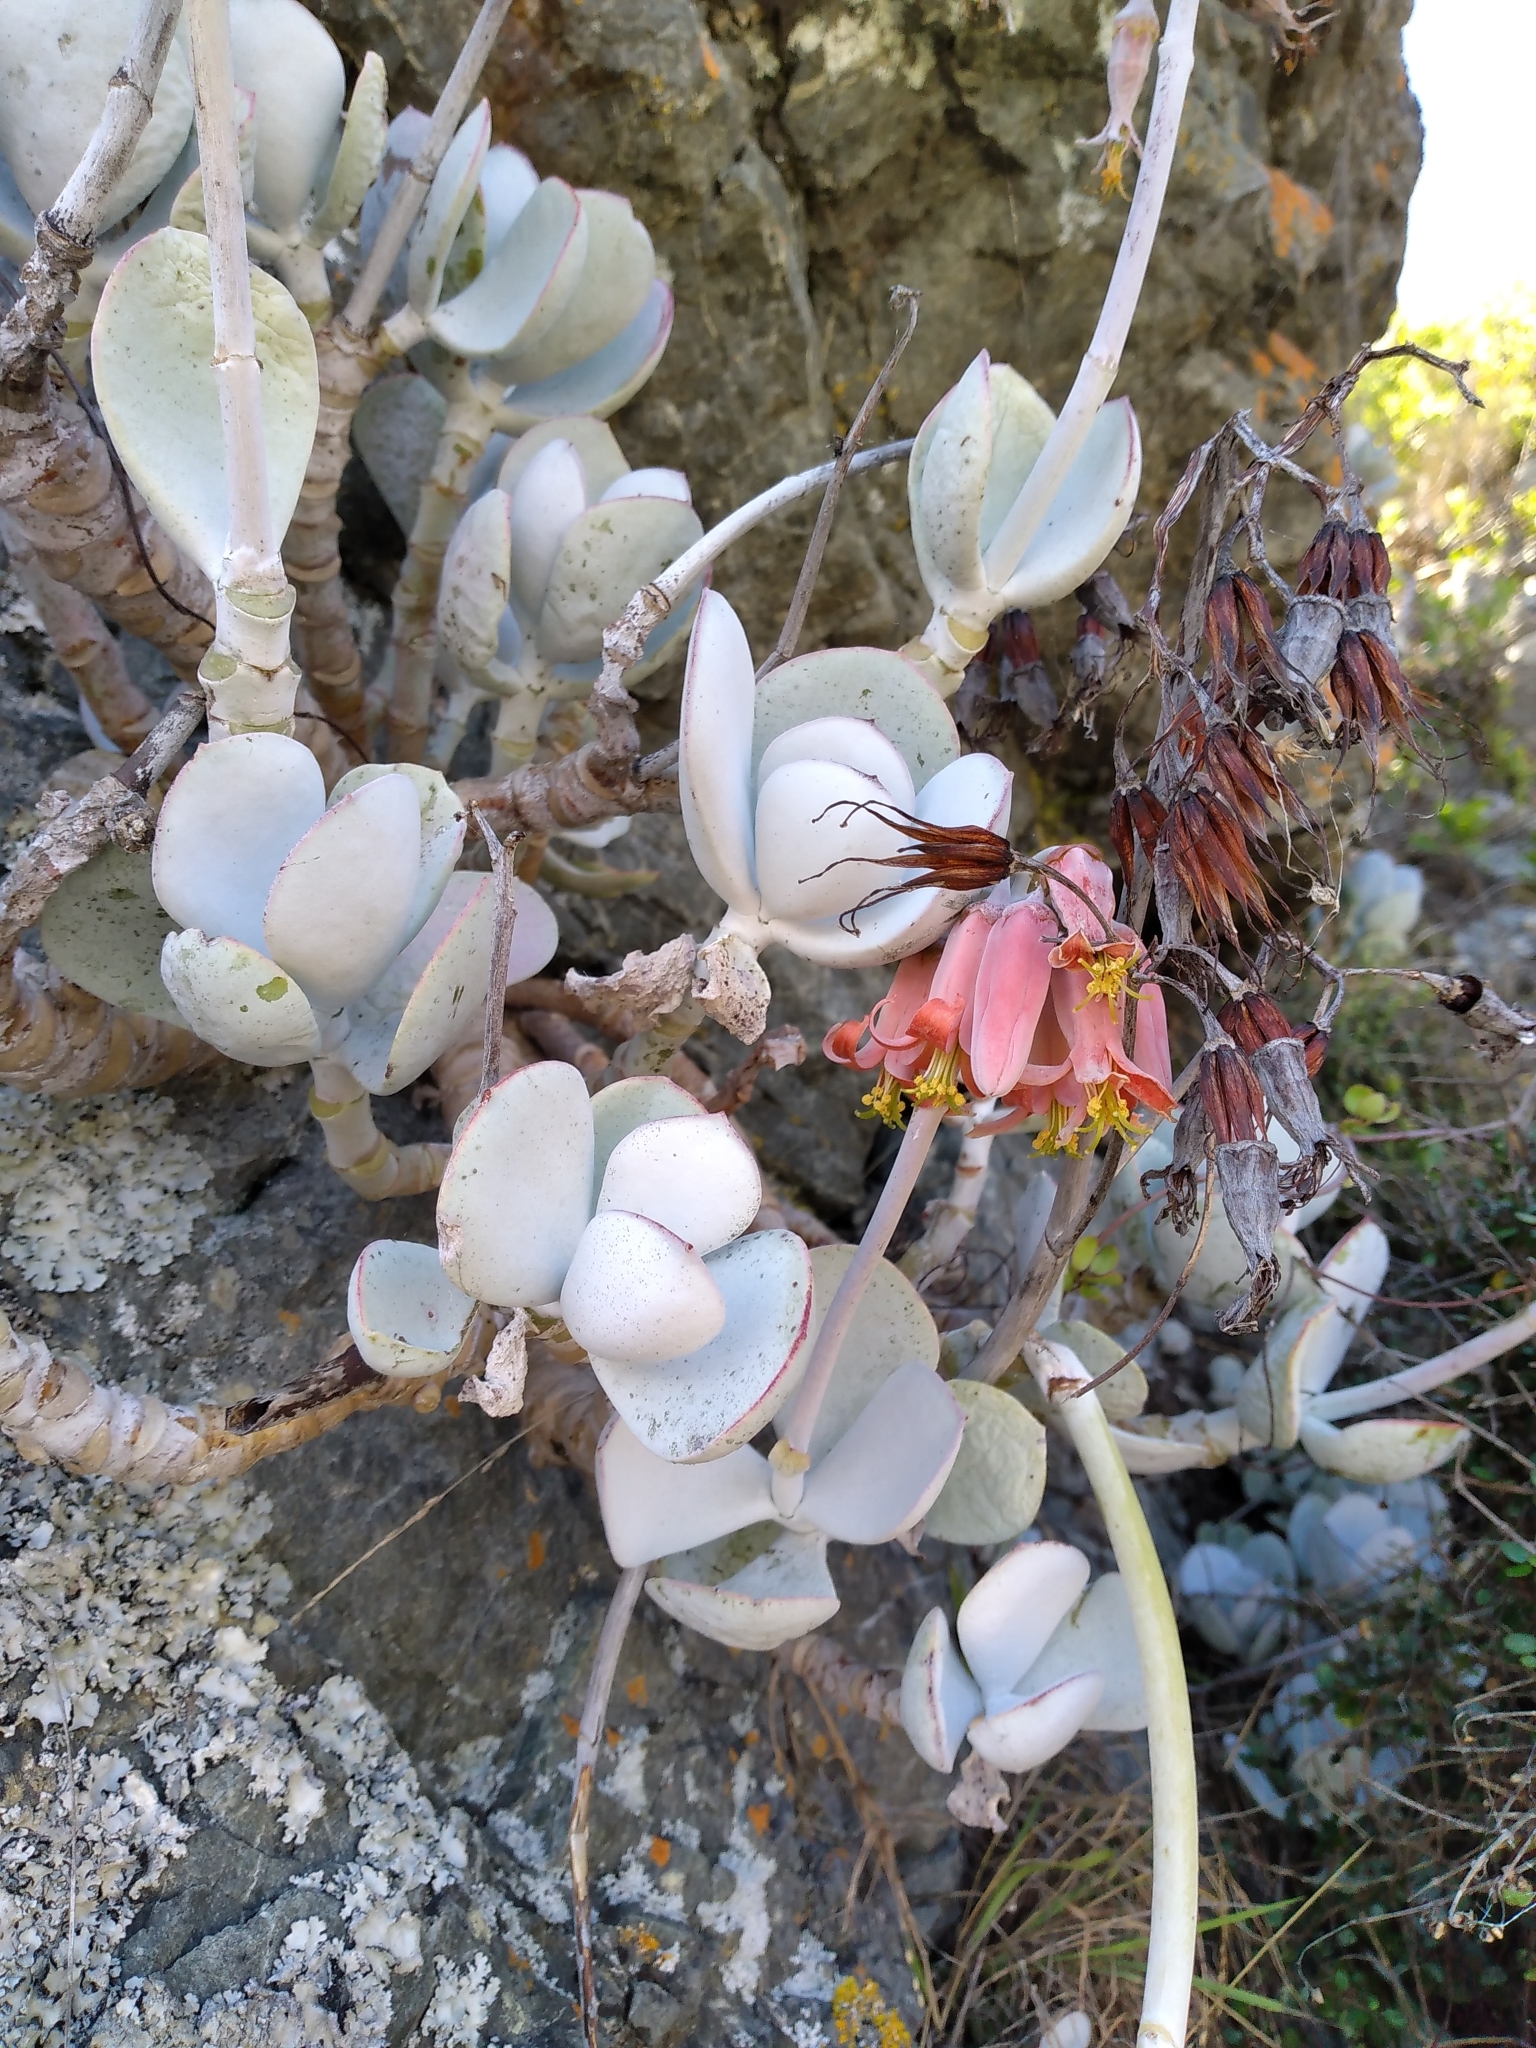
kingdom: Plantae
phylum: Tracheophyta
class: Magnoliopsida
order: Saxifragales
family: Crassulaceae
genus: Cotyledon
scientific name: Cotyledon orbiculata
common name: Pig's ear
